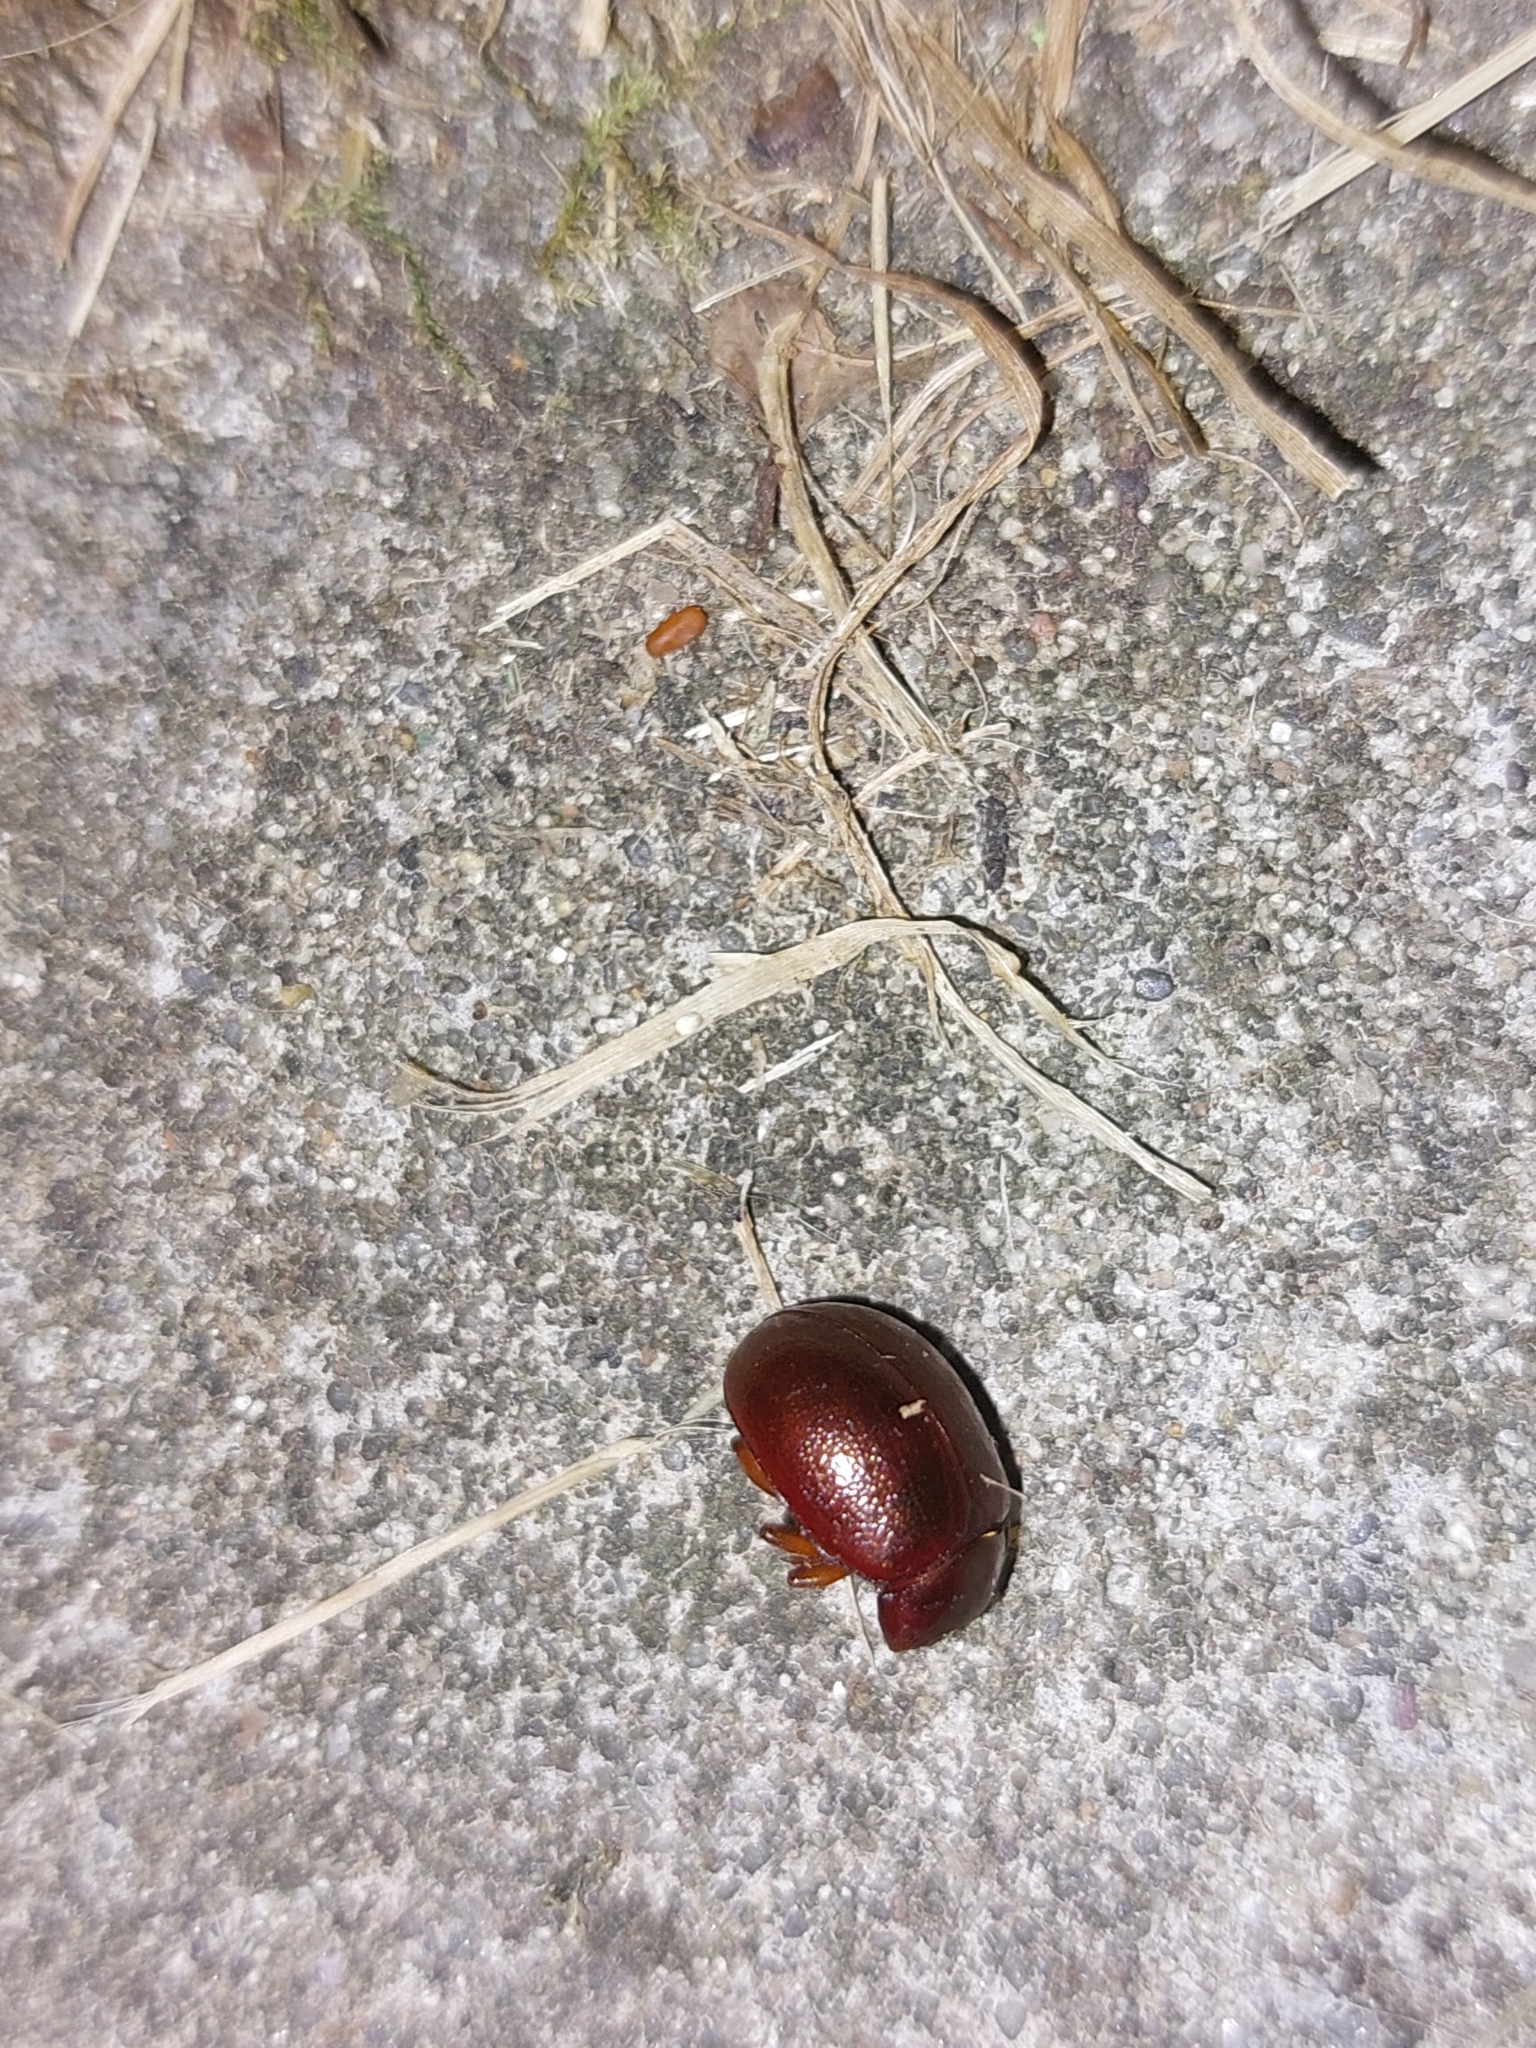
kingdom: Animalia
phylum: Arthropoda
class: Insecta
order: Coleoptera
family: Chrysomelidae
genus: Chrysolina
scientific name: Chrysolina staphylaea
